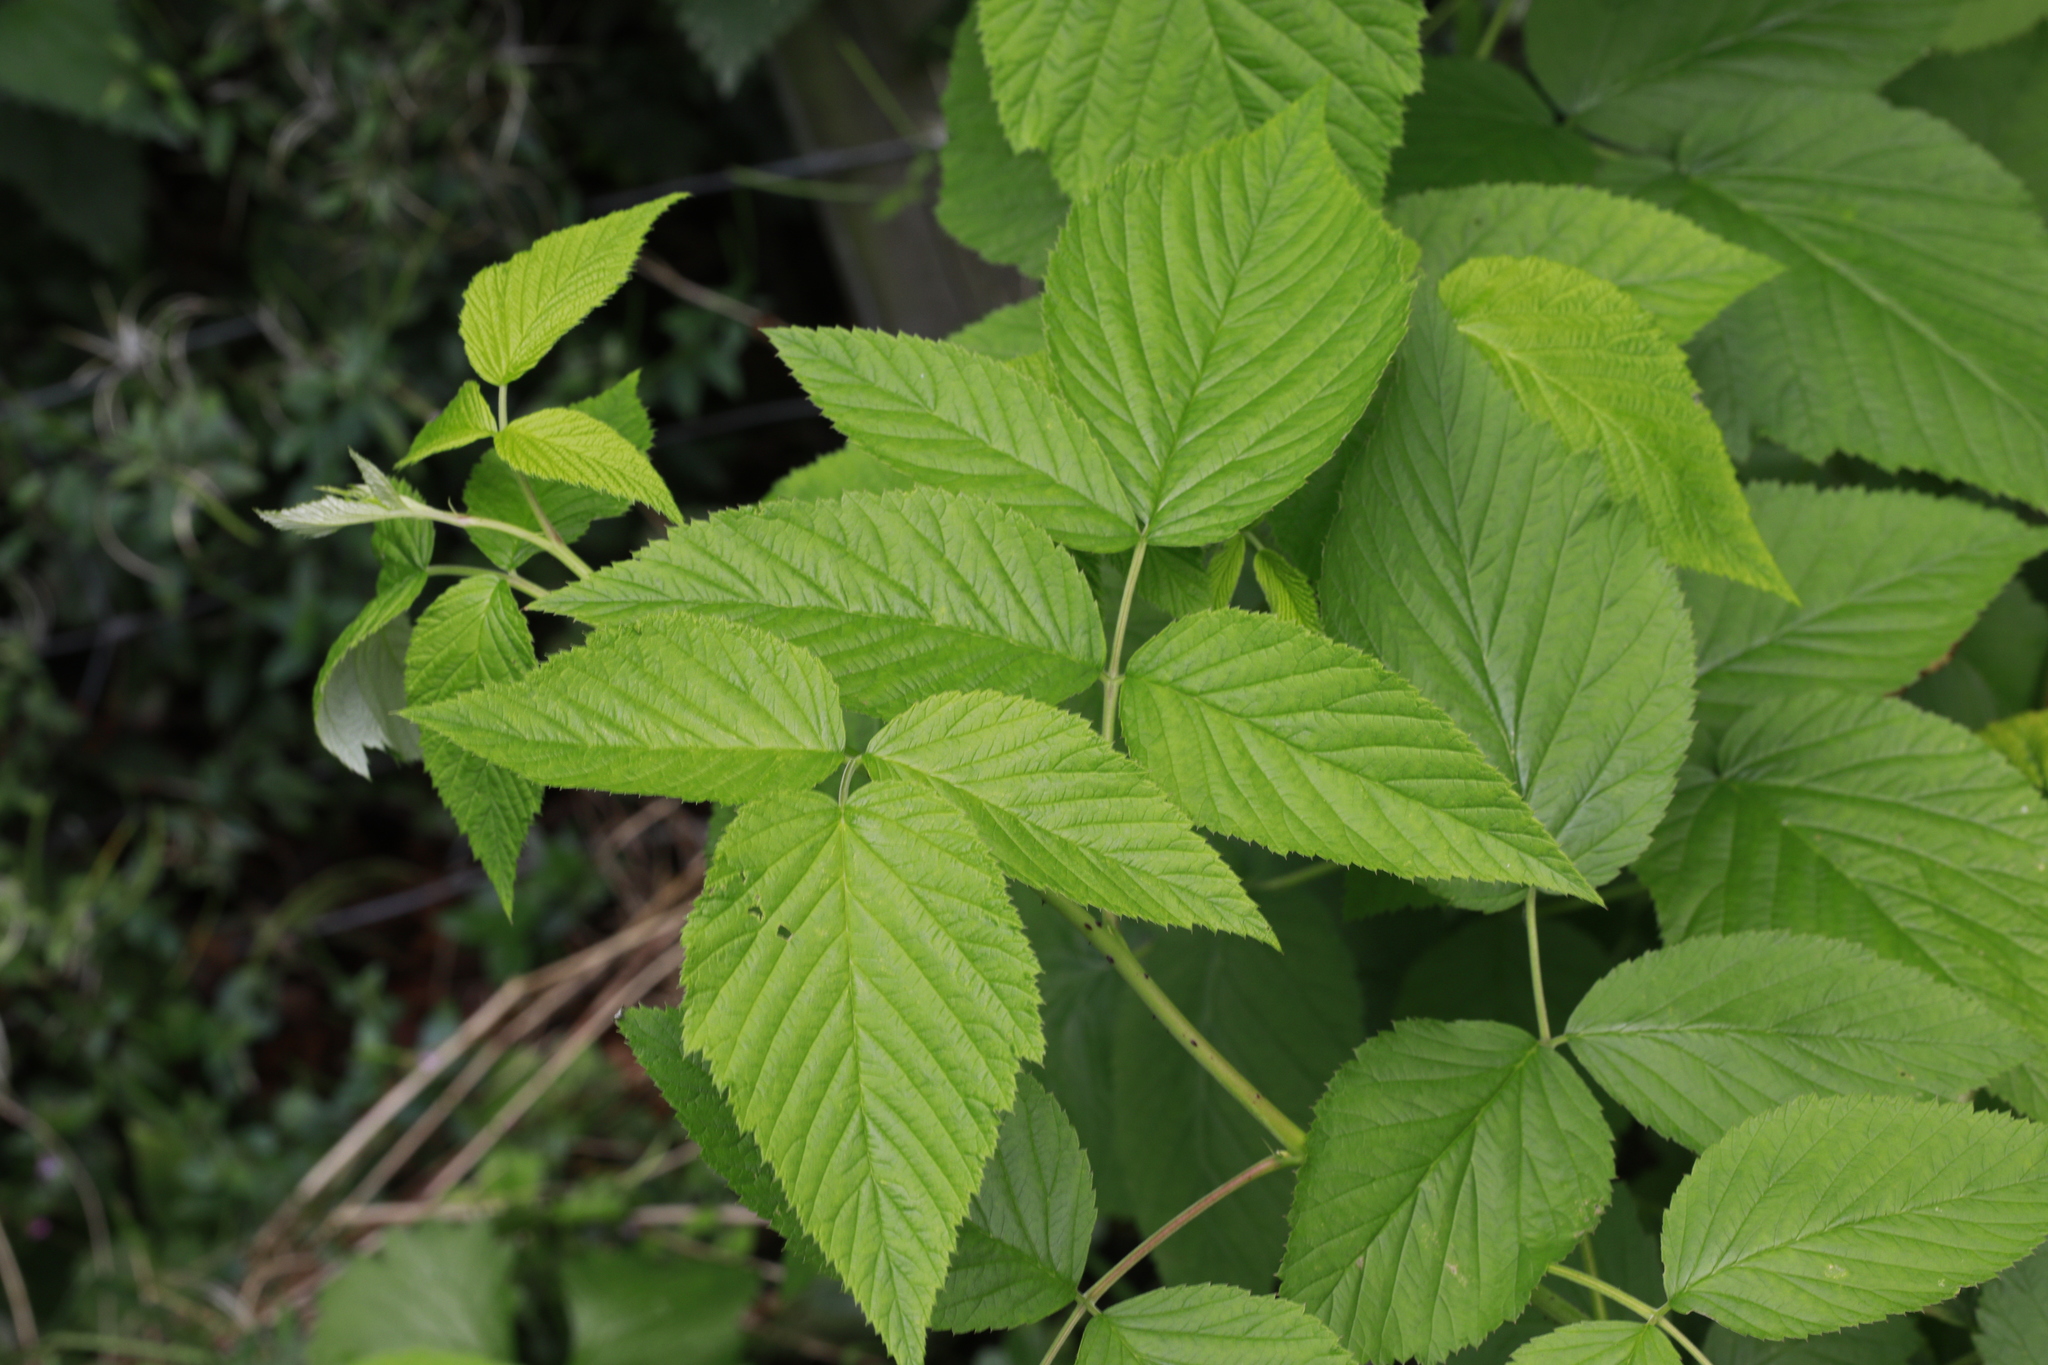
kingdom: Plantae
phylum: Tracheophyta
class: Magnoliopsida
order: Rosales
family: Rosaceae
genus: Rubus
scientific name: Rubus idaeus
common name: Raspberry
